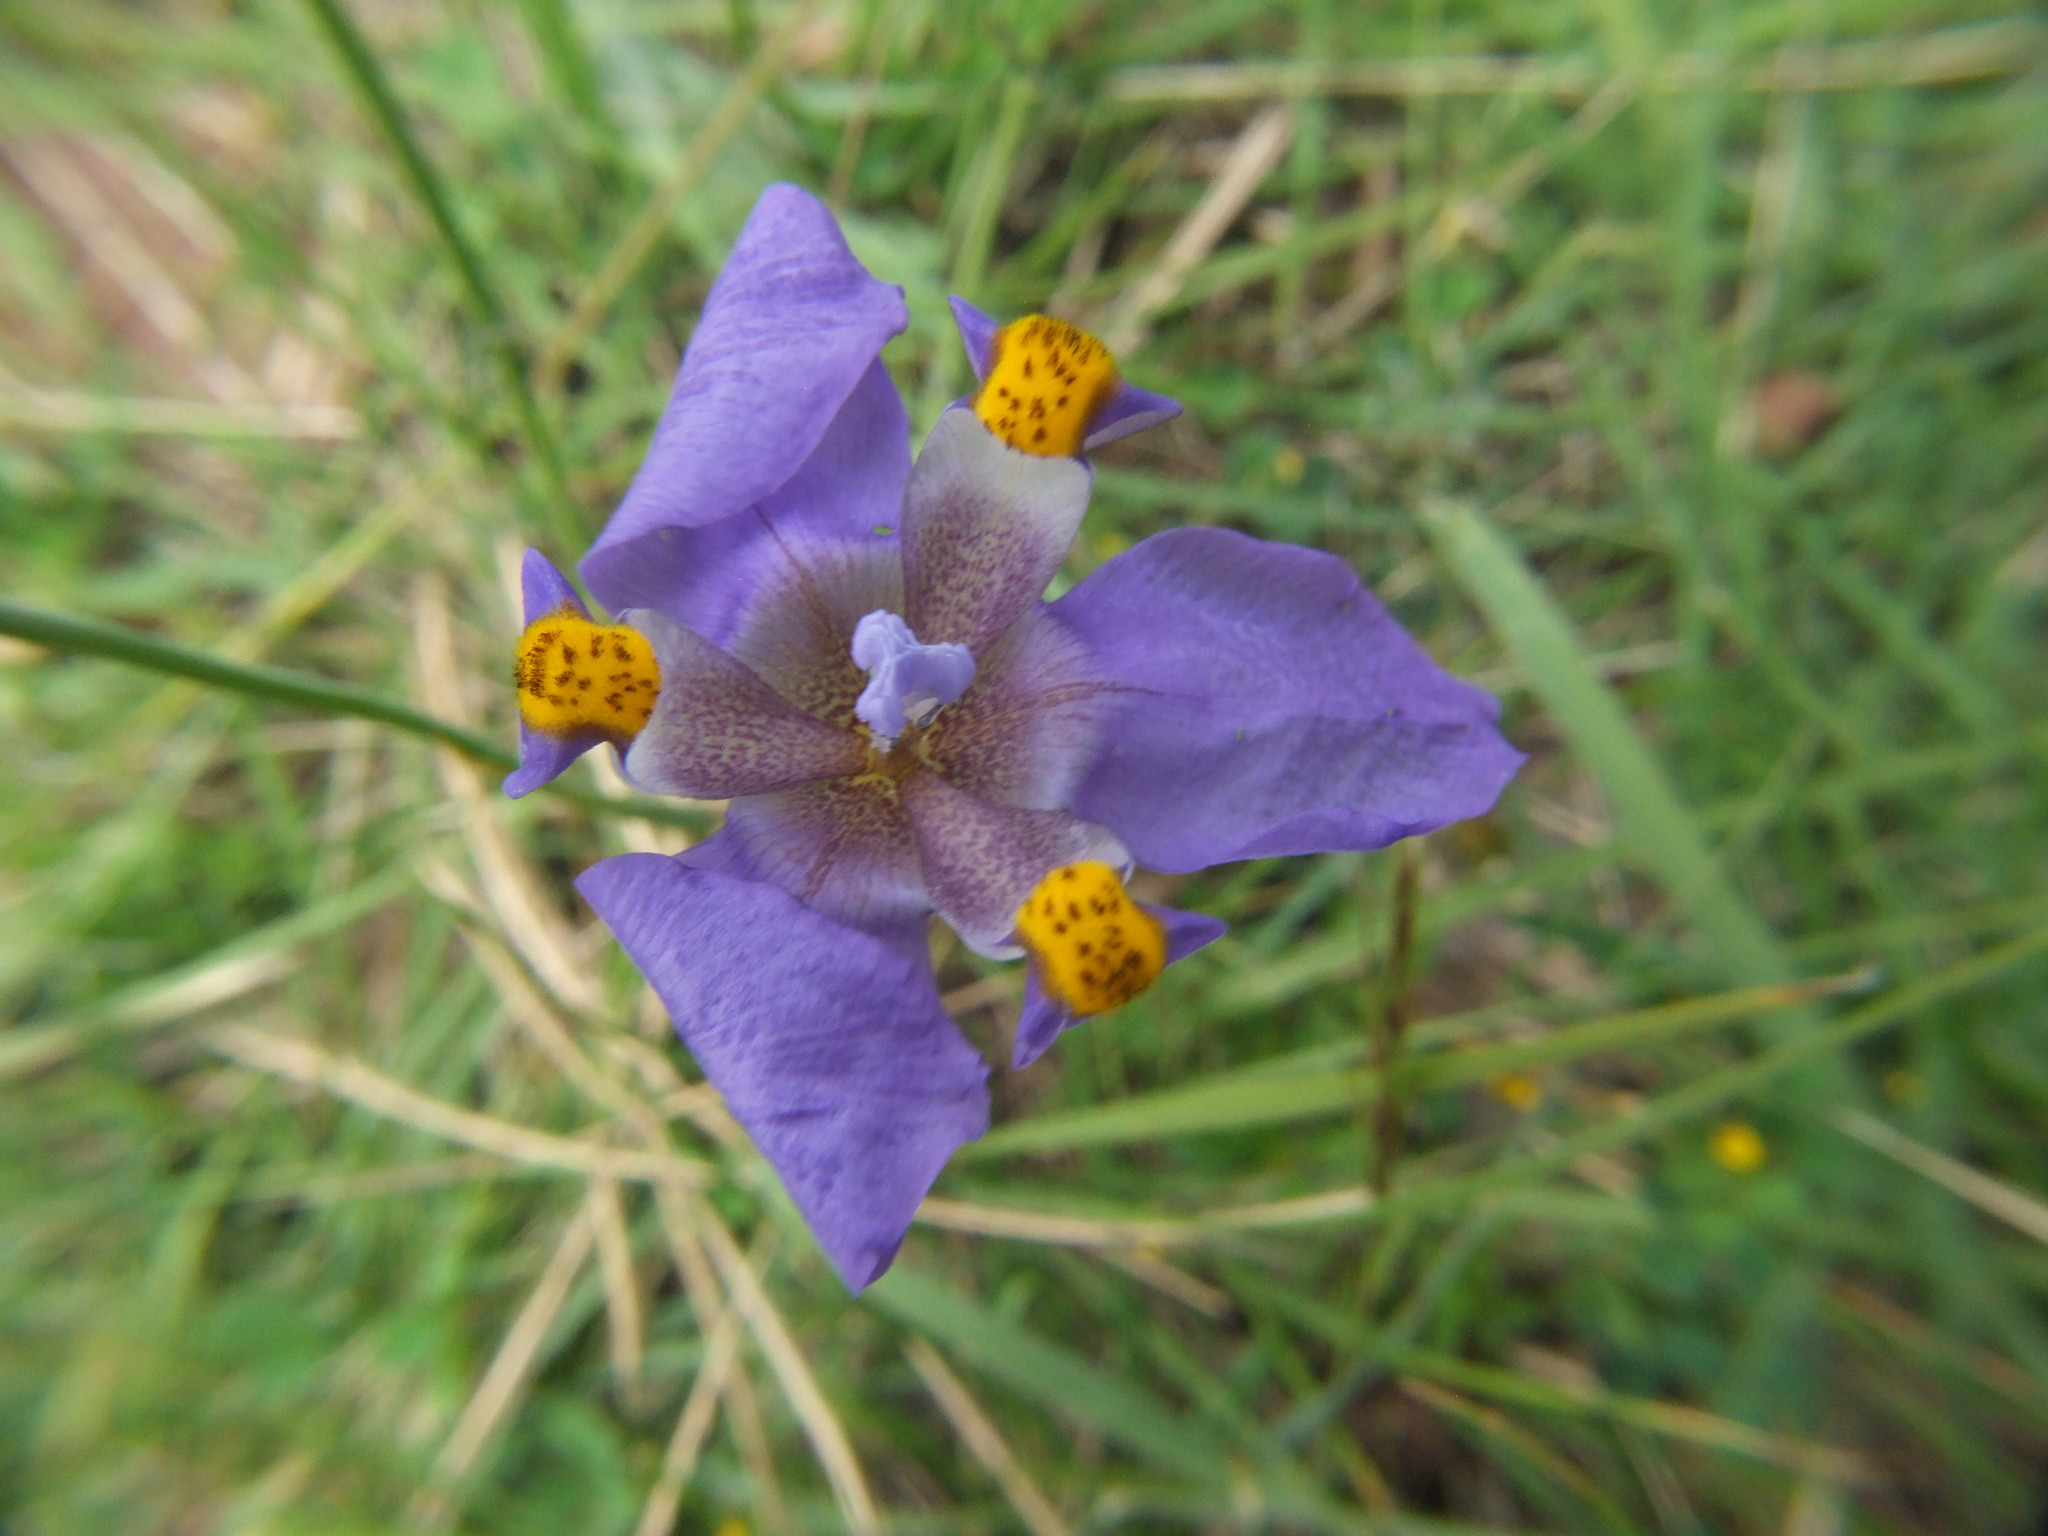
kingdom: Plantae
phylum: Tracheophyta
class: Liliopsida
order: Asparagales
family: Iridaceae
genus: Hesperoxiphion
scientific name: Hesperoxiphion herrerae
